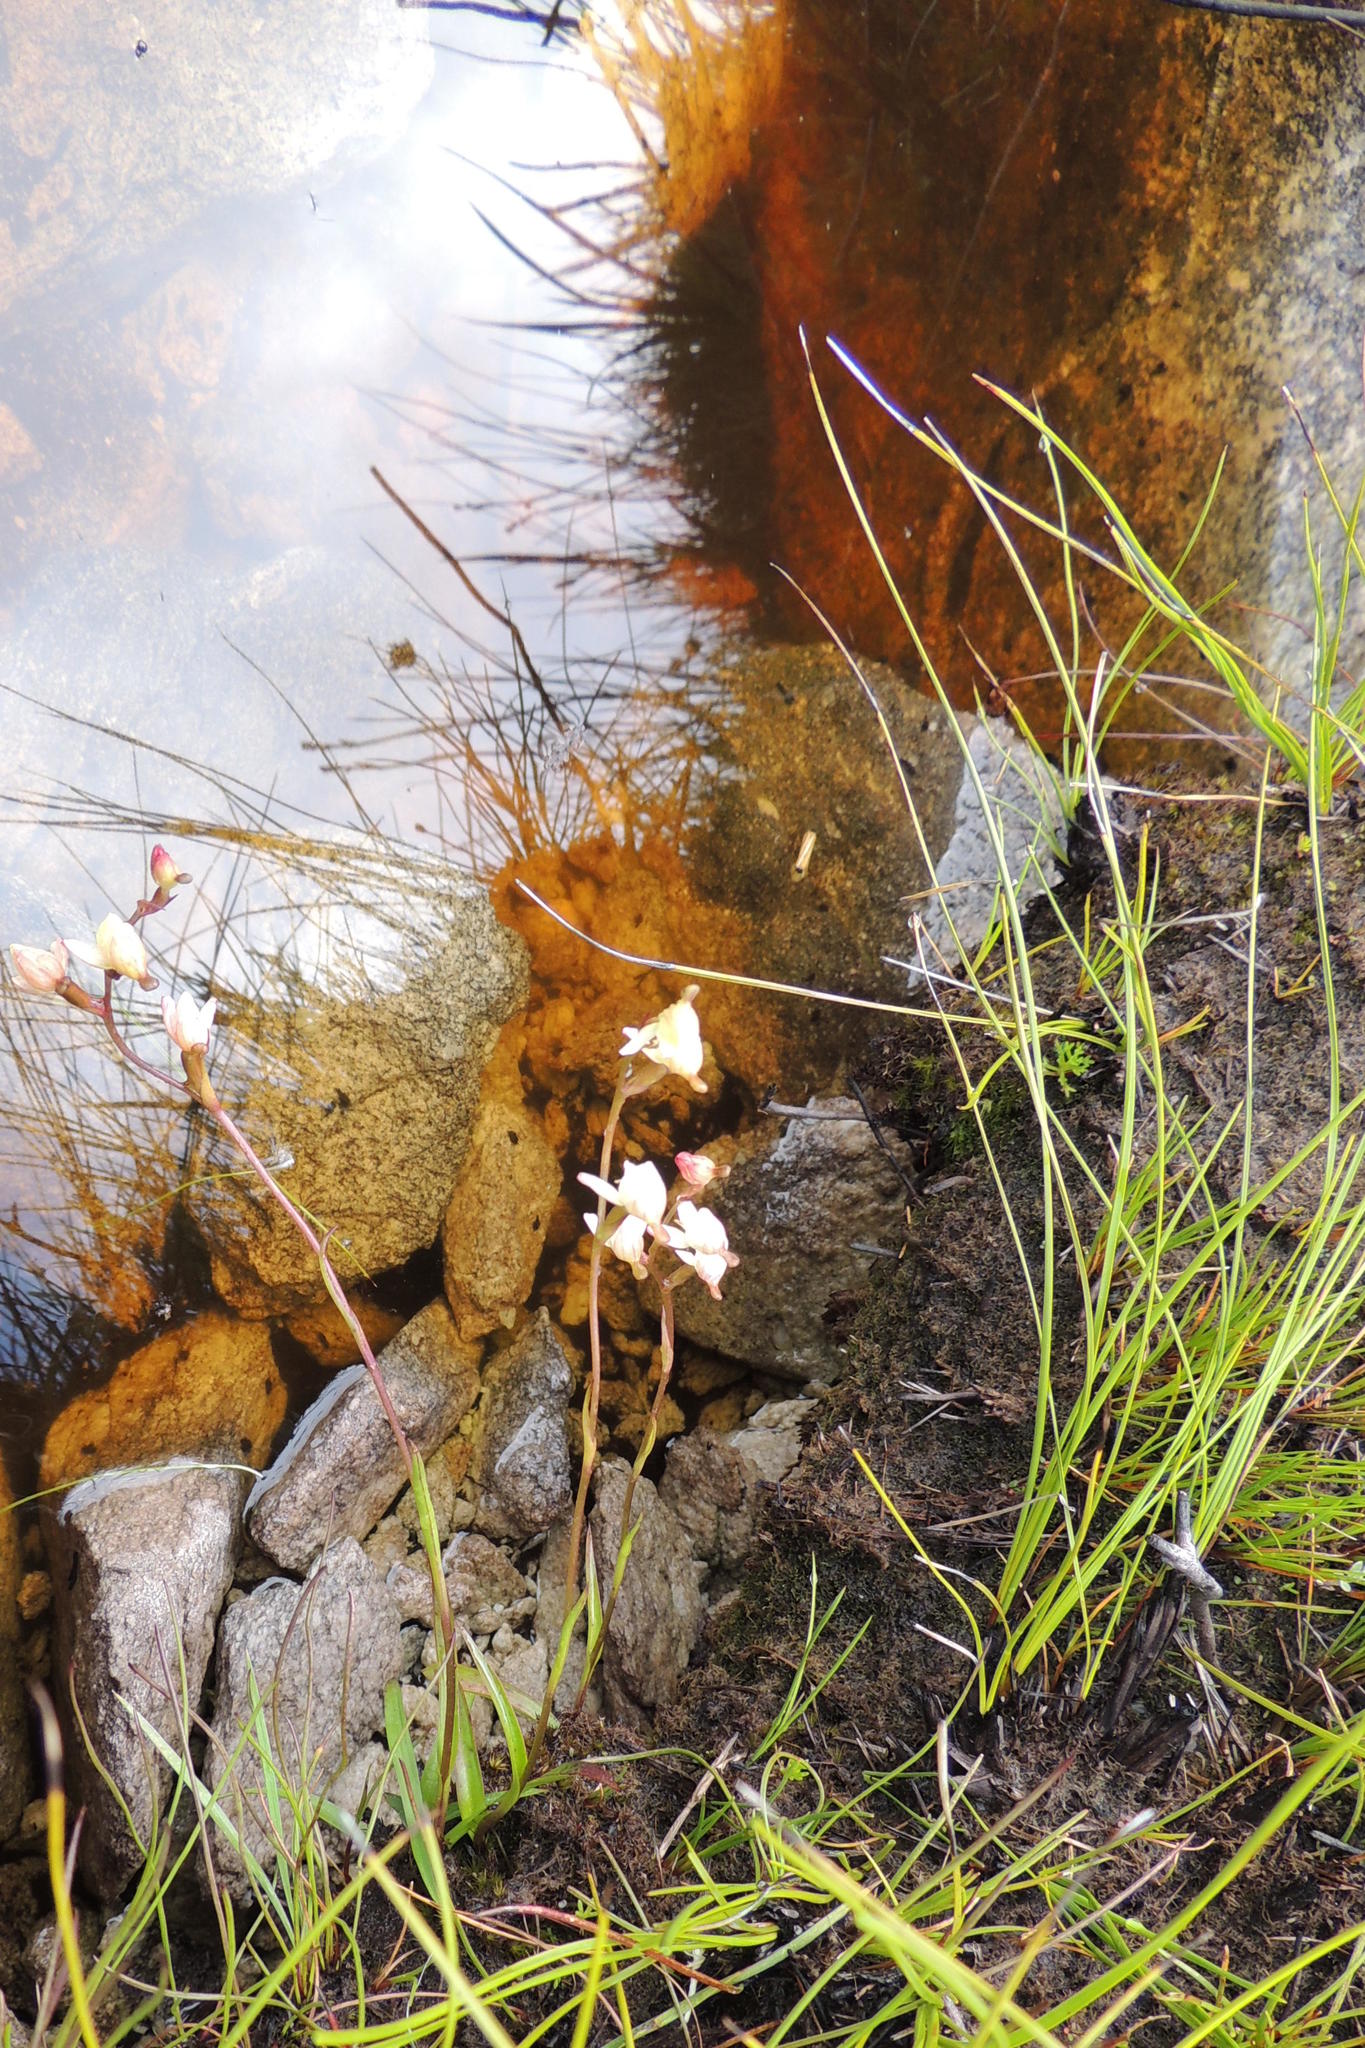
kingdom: Plantae
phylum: Tracheophyta
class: Liliopsida
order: Asparagales
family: Orchidaceae
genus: Disa
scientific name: Disa uncinata
